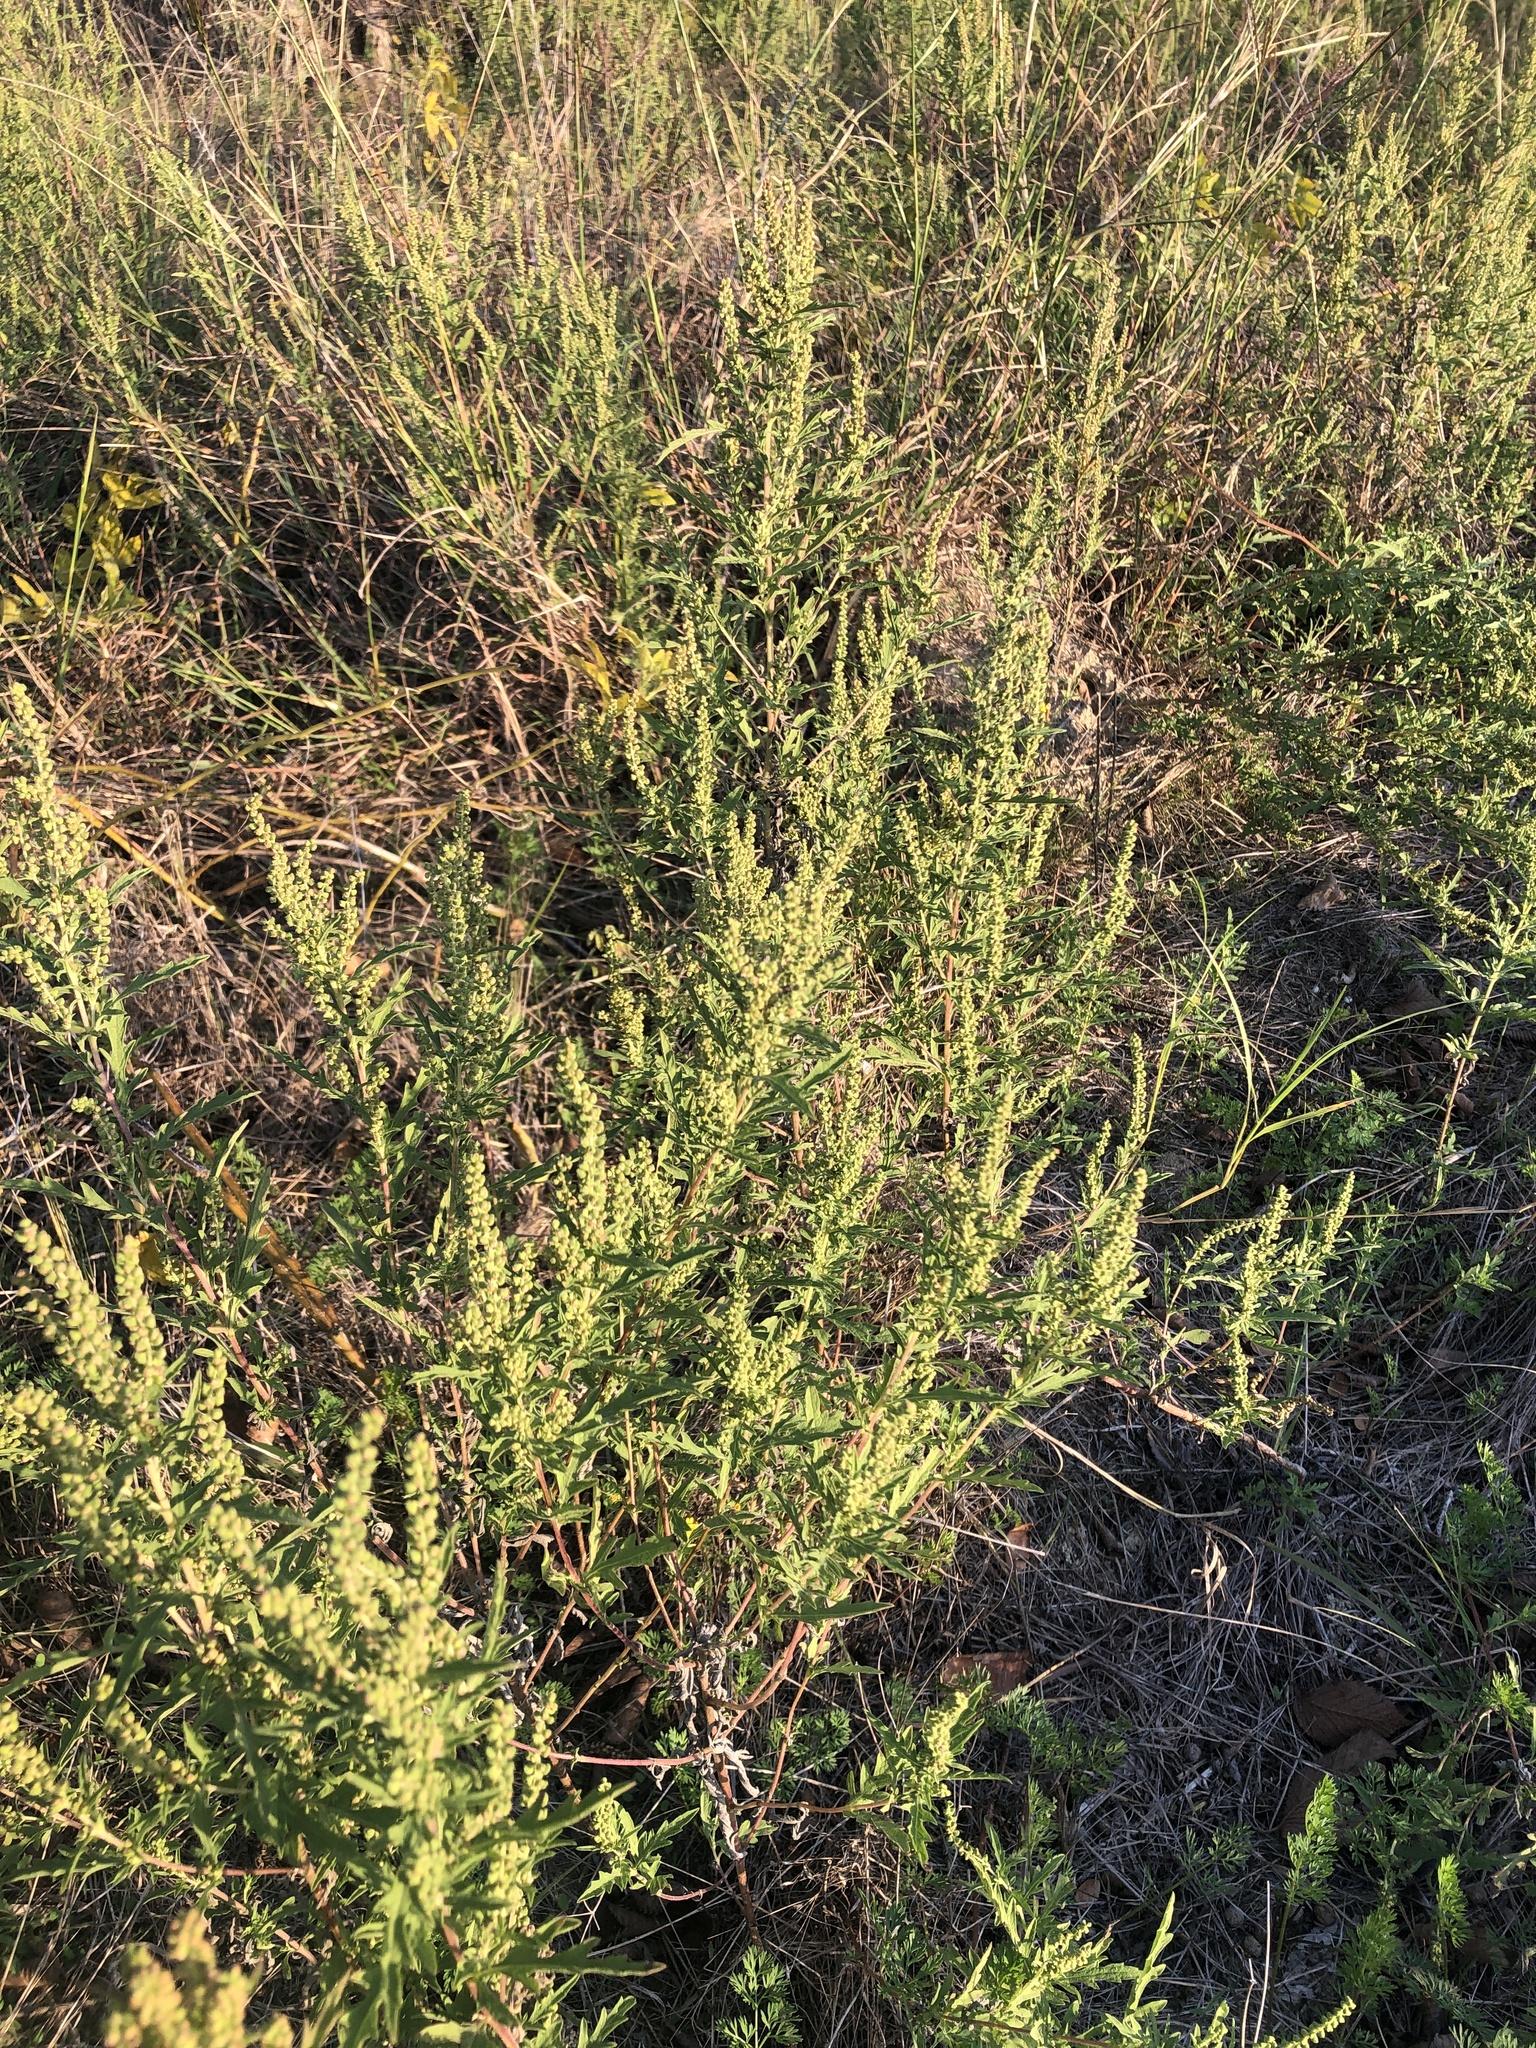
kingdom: Plantae
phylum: Tracheophyta
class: Magnoliopsida
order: Asterales
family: Asteraceae
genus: Ambrosia
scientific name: Ambrosia psilostachya
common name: Perennial ragweed
